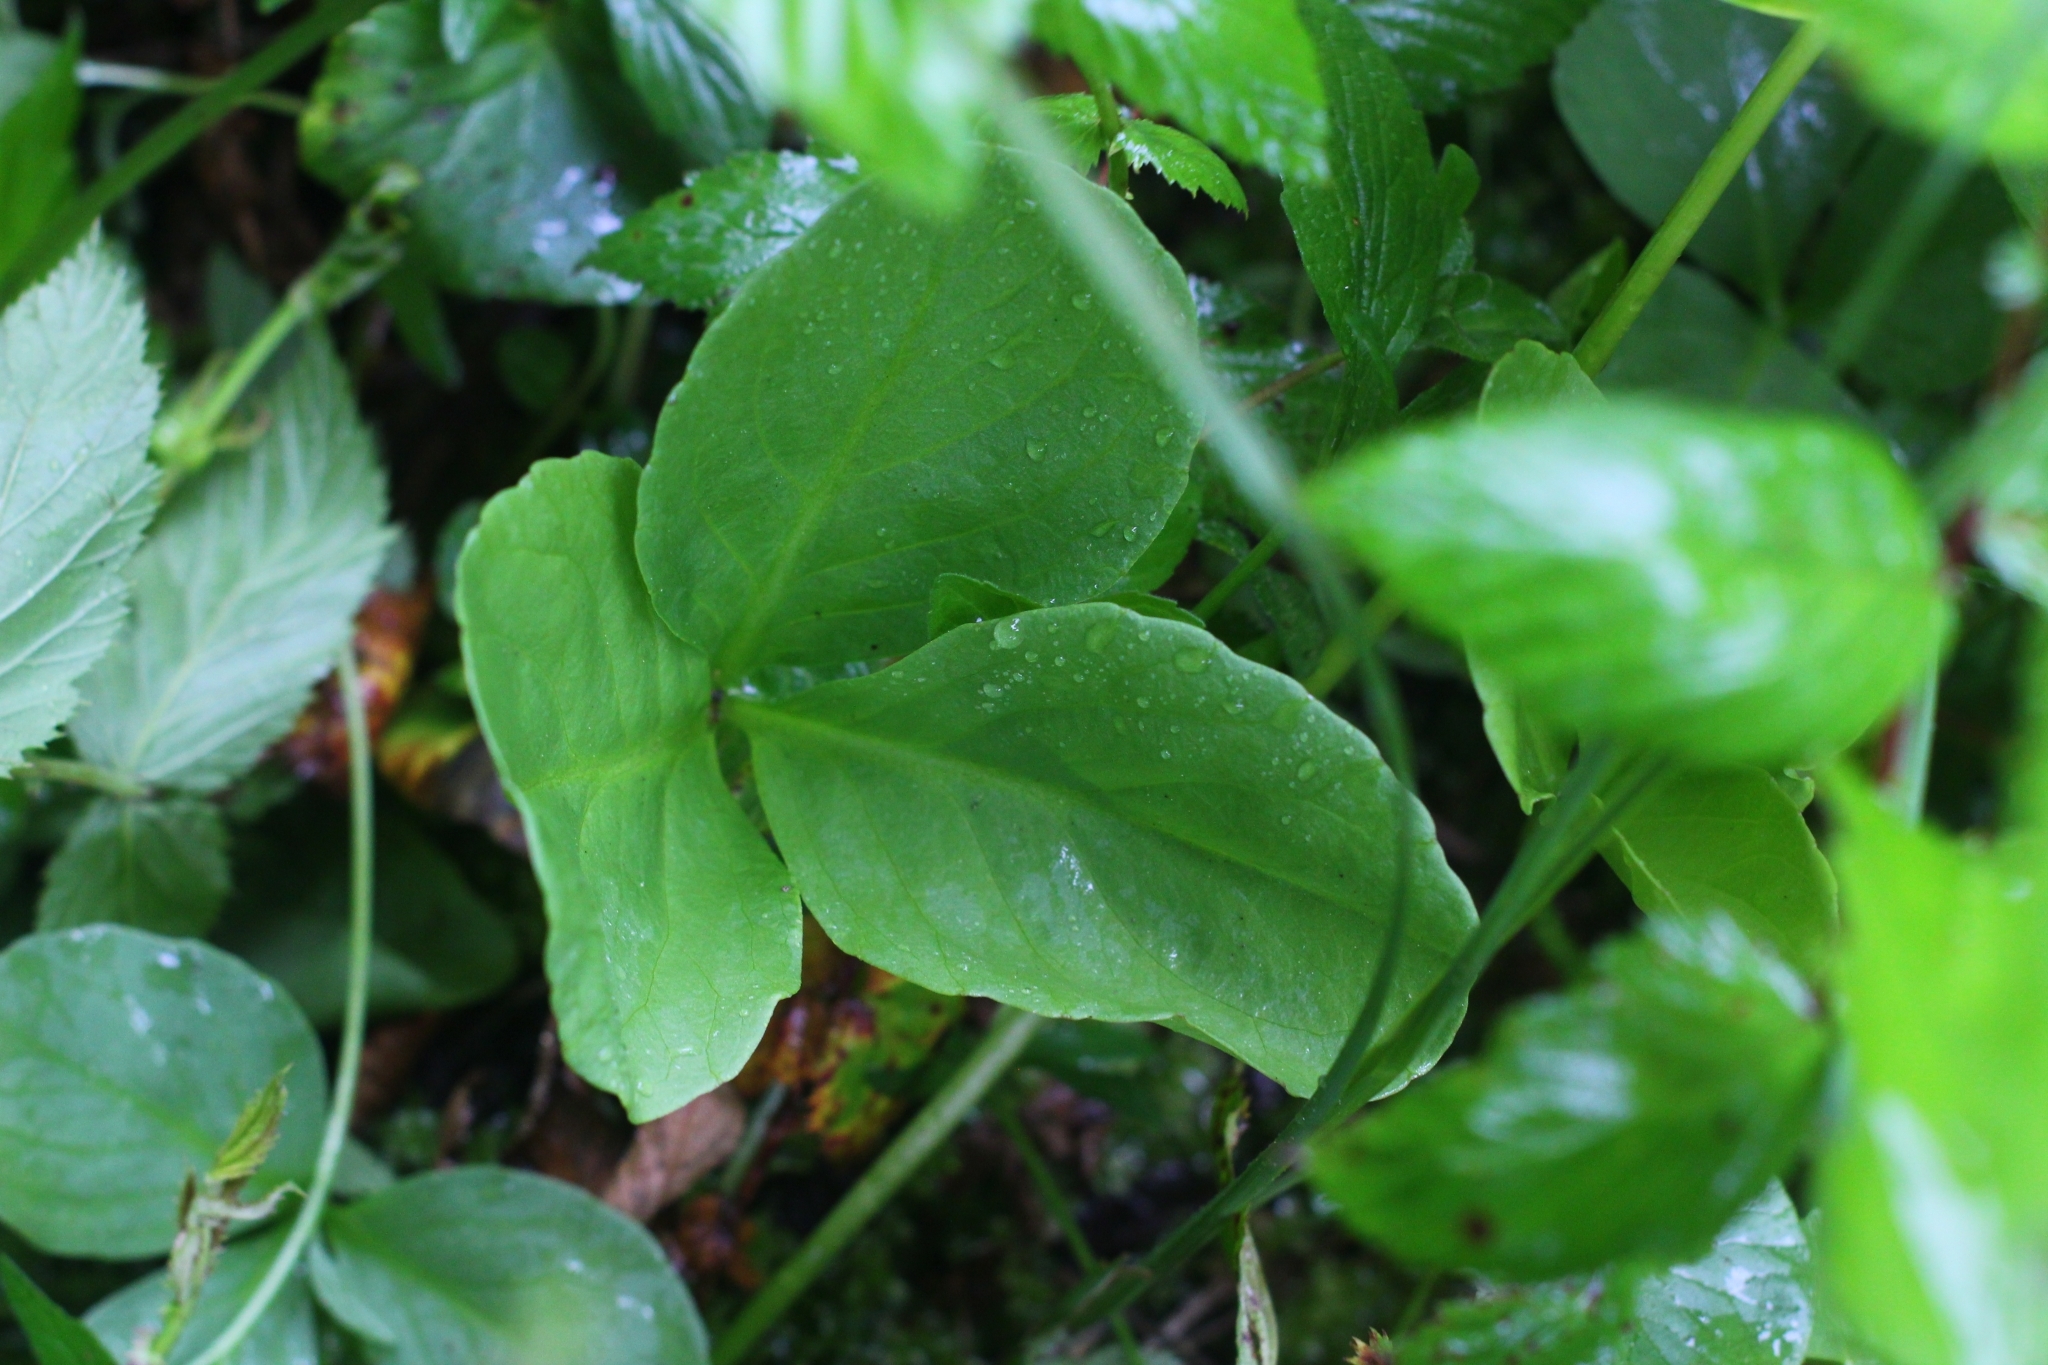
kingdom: Plantae
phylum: Tracheophyta
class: Magnoliopsida
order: Asterales
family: Menyanthaceae
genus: Menyanthes
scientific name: Menyanthes trifoliata
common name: Bogbean
